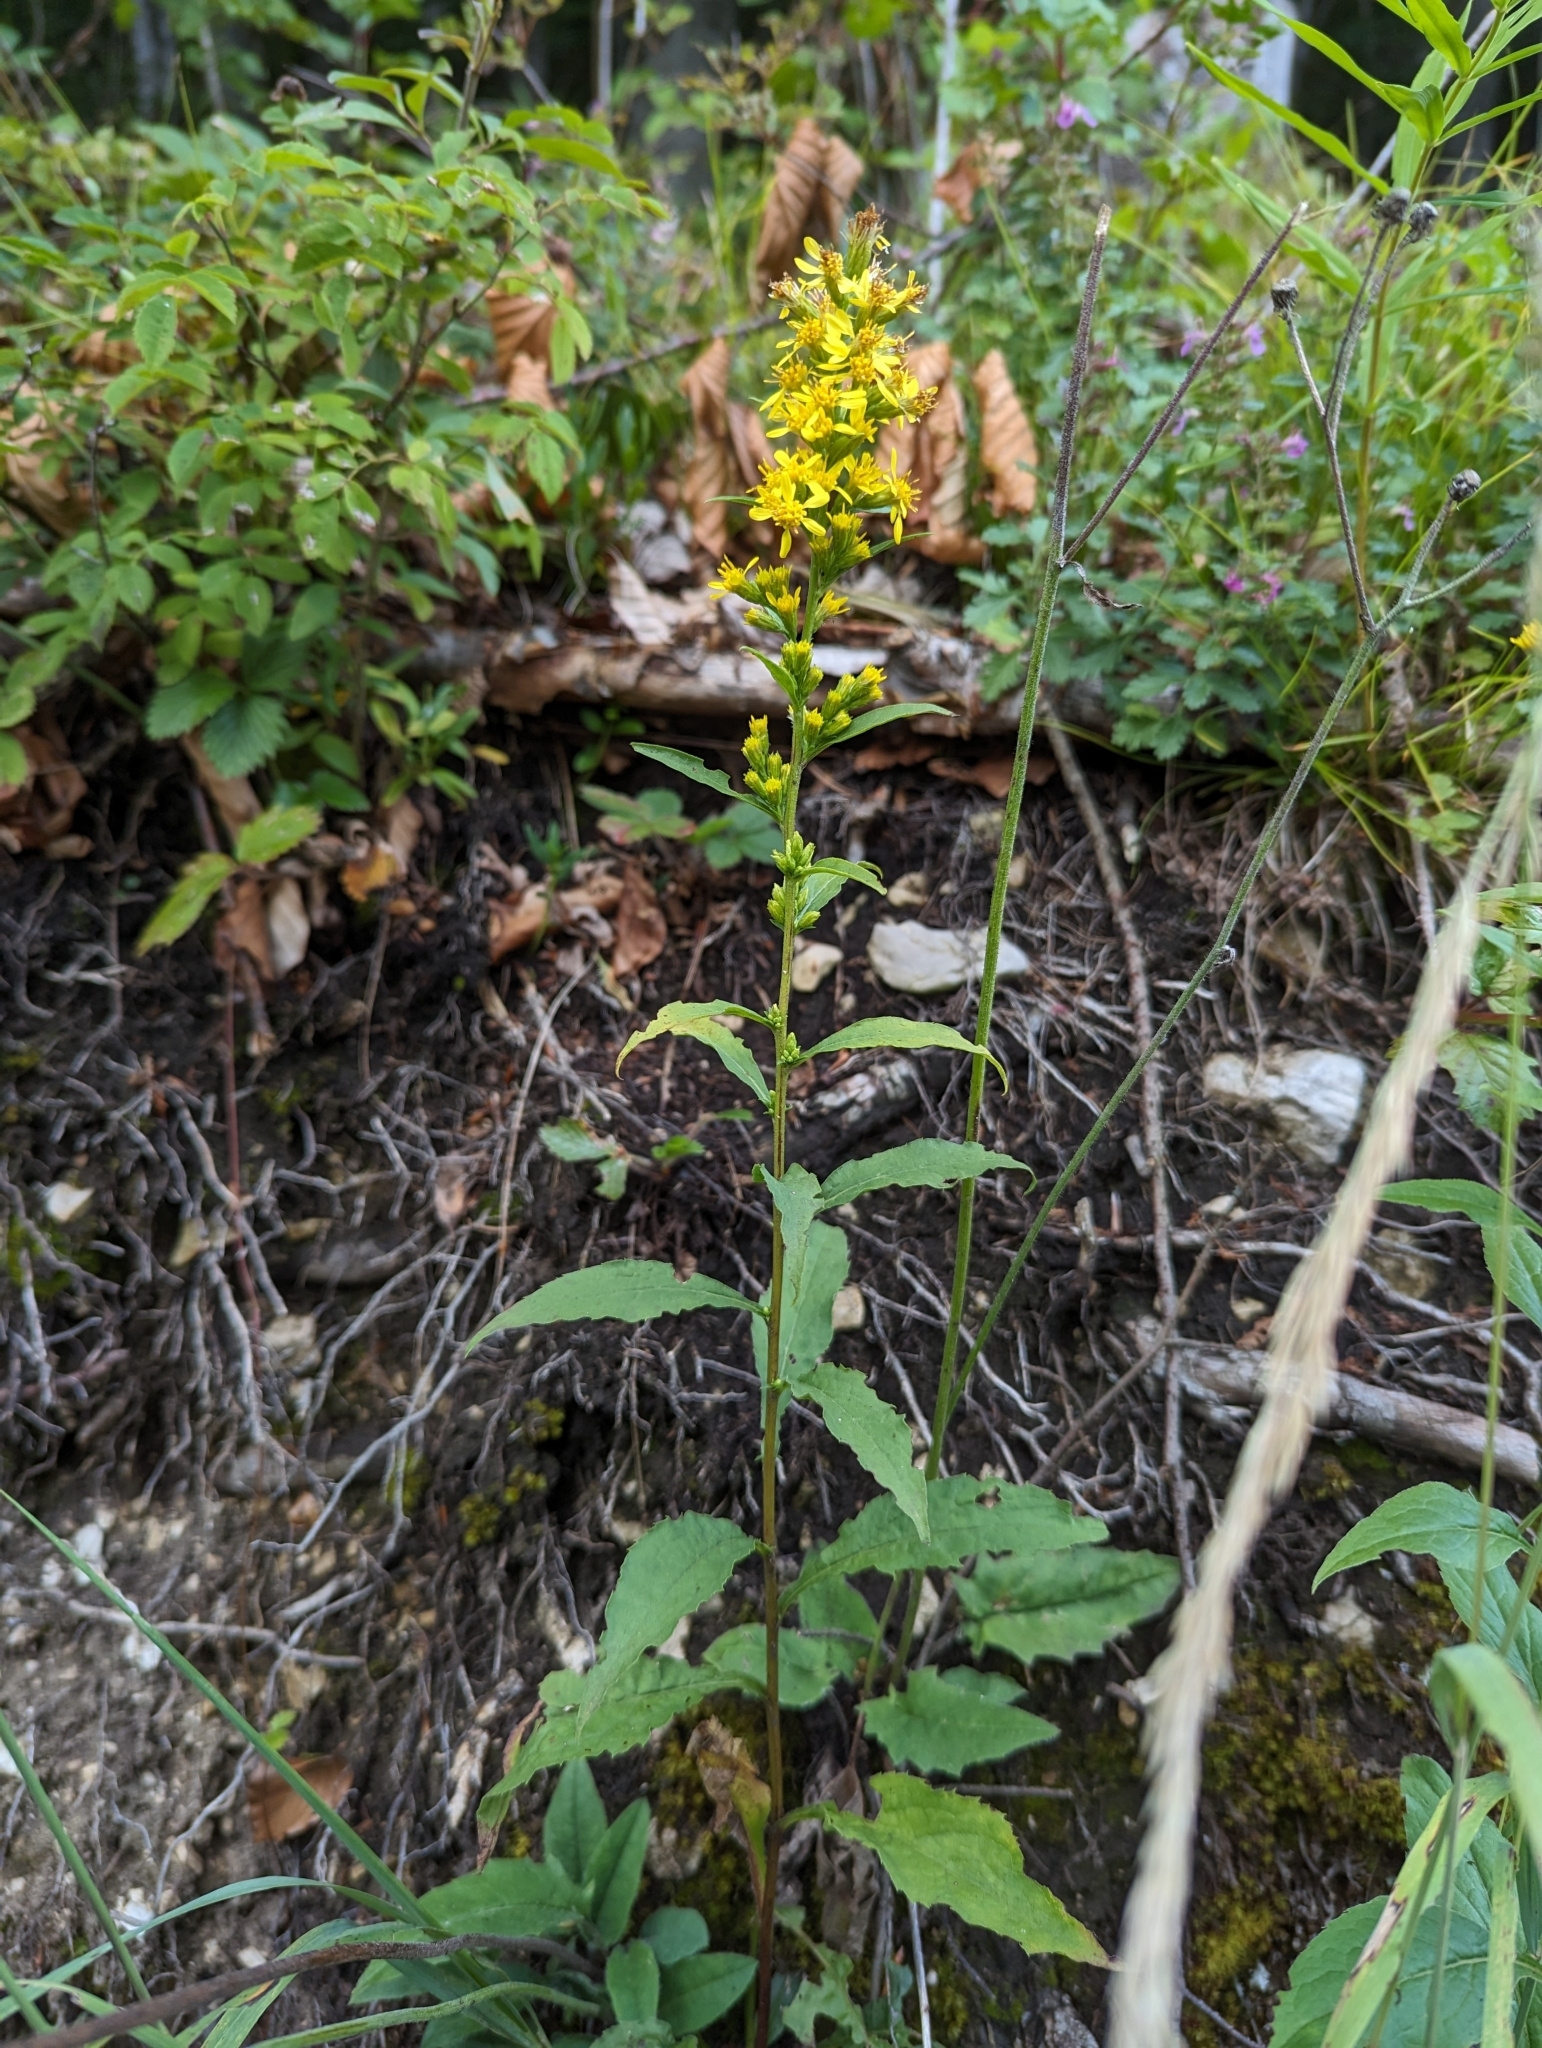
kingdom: Plantae
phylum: Tracheophyta
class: Magnoliopsida
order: Asterales
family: Asteraceae
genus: Solidago
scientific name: Solidago virgaurea
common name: Goldenrod
